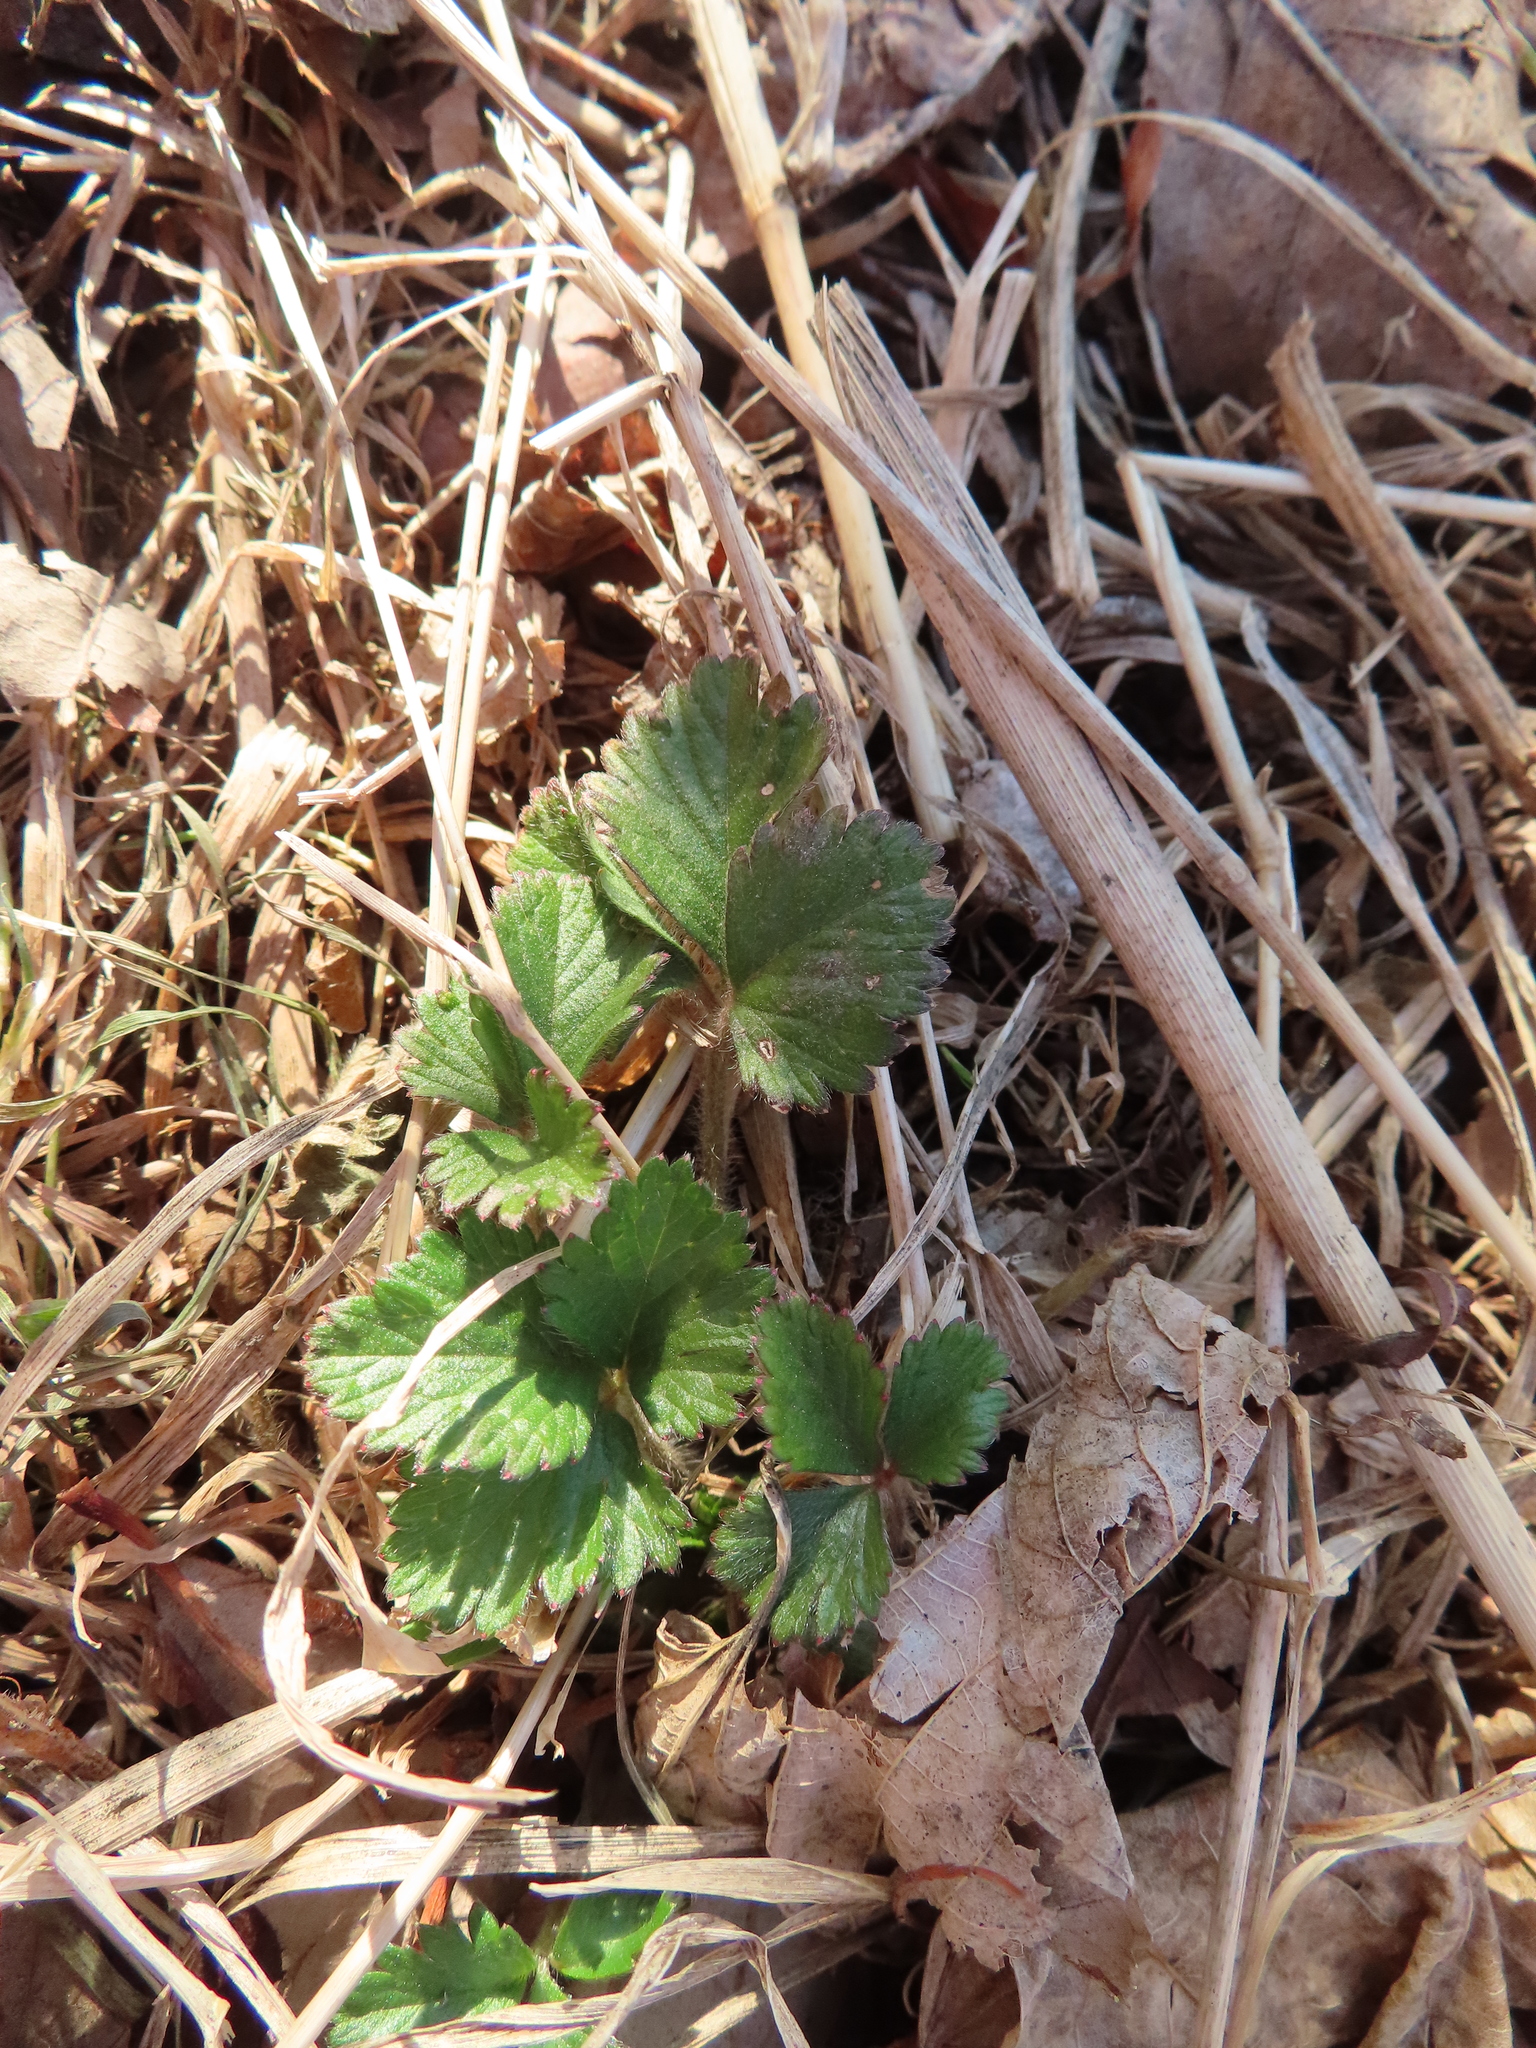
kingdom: Plantae
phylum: Tracheophyta
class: Magnoliopsida
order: Rosales
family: Rosaceae
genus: Potentilla
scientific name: Potentilla indica
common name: Yellow-flowered strawberry
